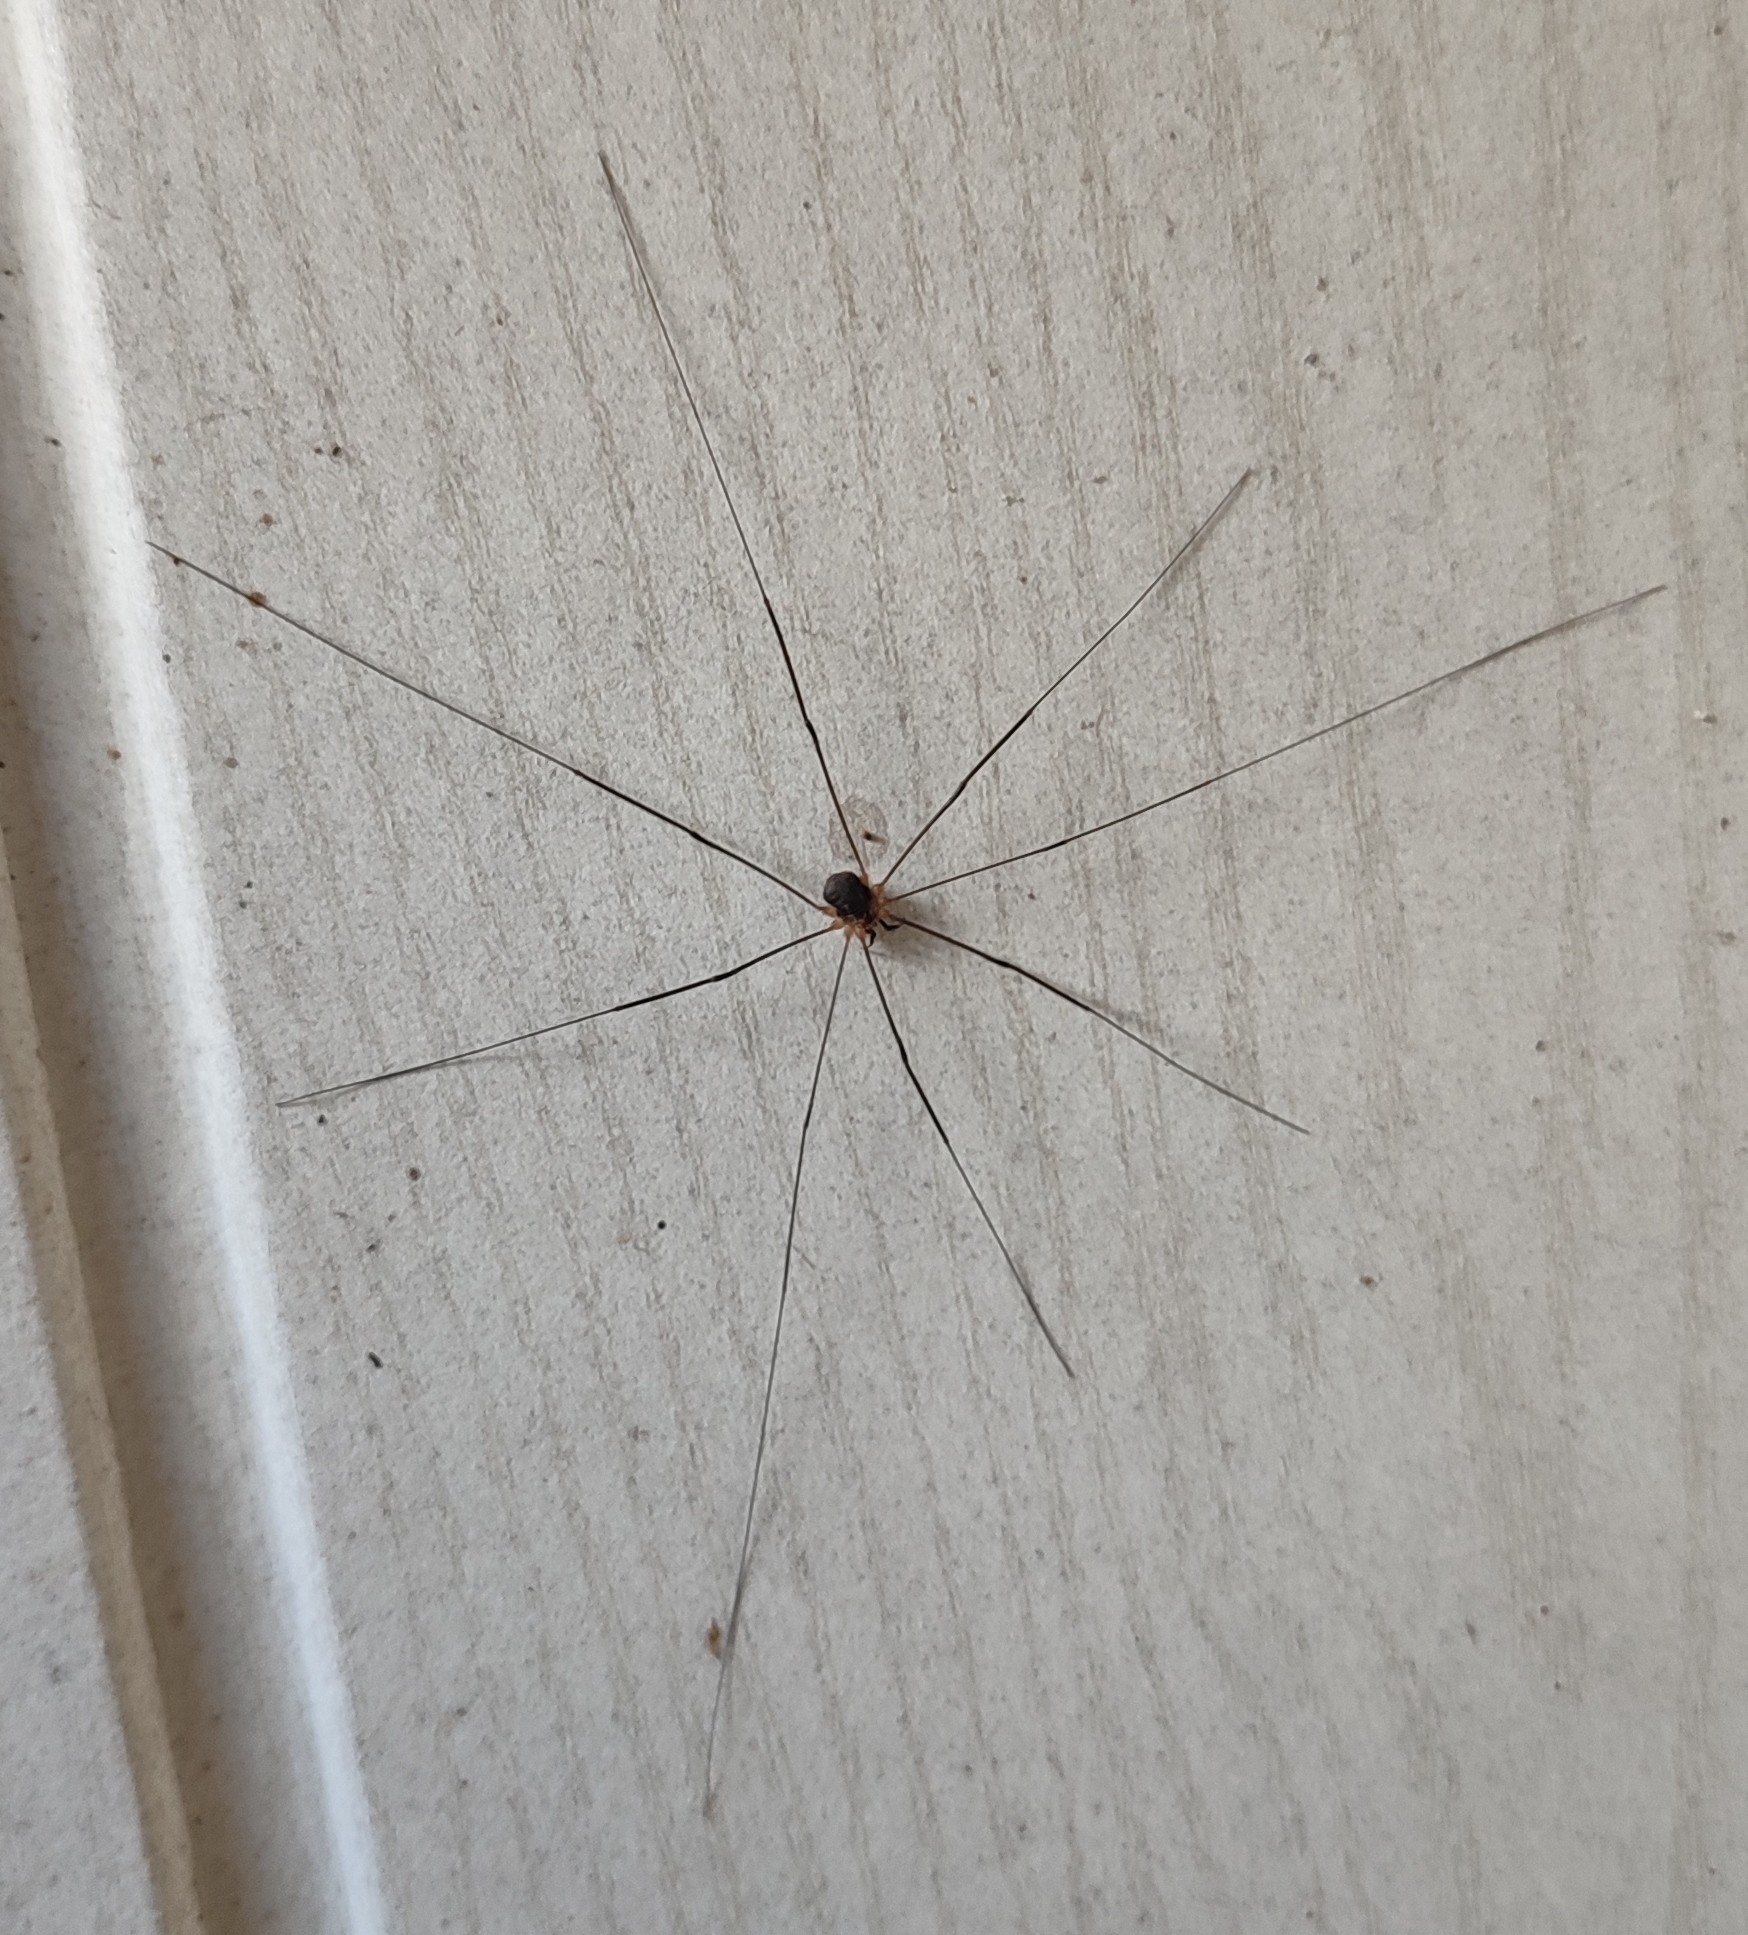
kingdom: Animalia
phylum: Arthropoda
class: Arachnida
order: Opiliones
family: Sclerosomatidae
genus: Leiobunum
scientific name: Leiobunum gracile
